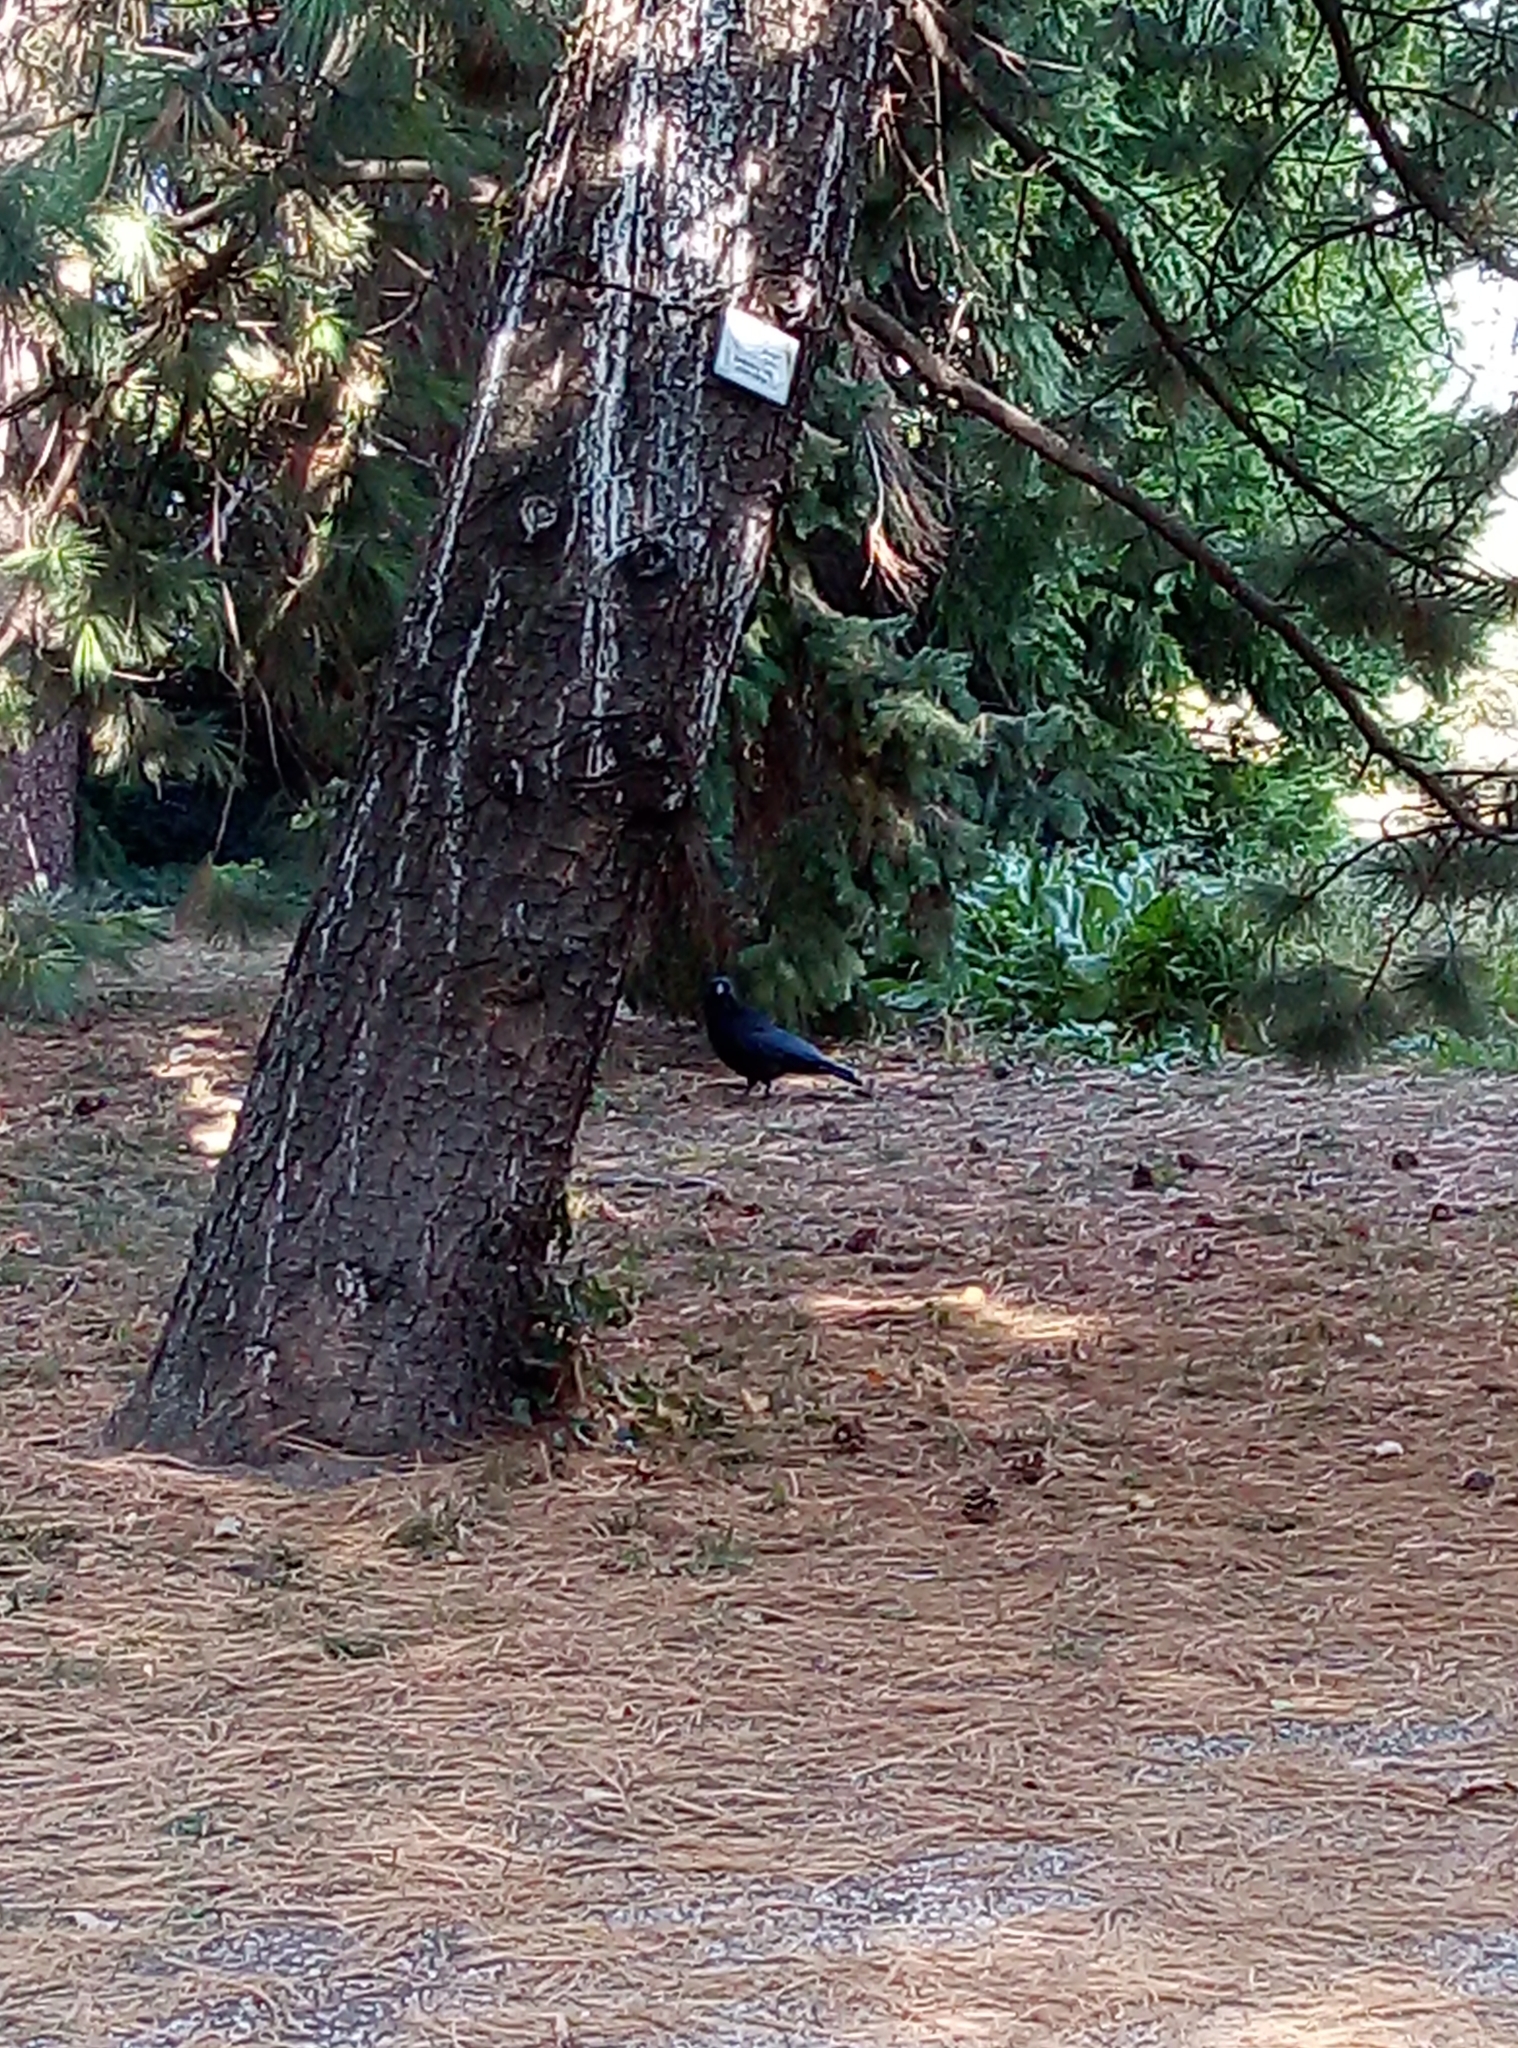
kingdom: Animalia
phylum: Chordata
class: Aves
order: Passeriformes
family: Corvidae
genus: Corvus
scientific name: Corvus corone
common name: Carrion crow
